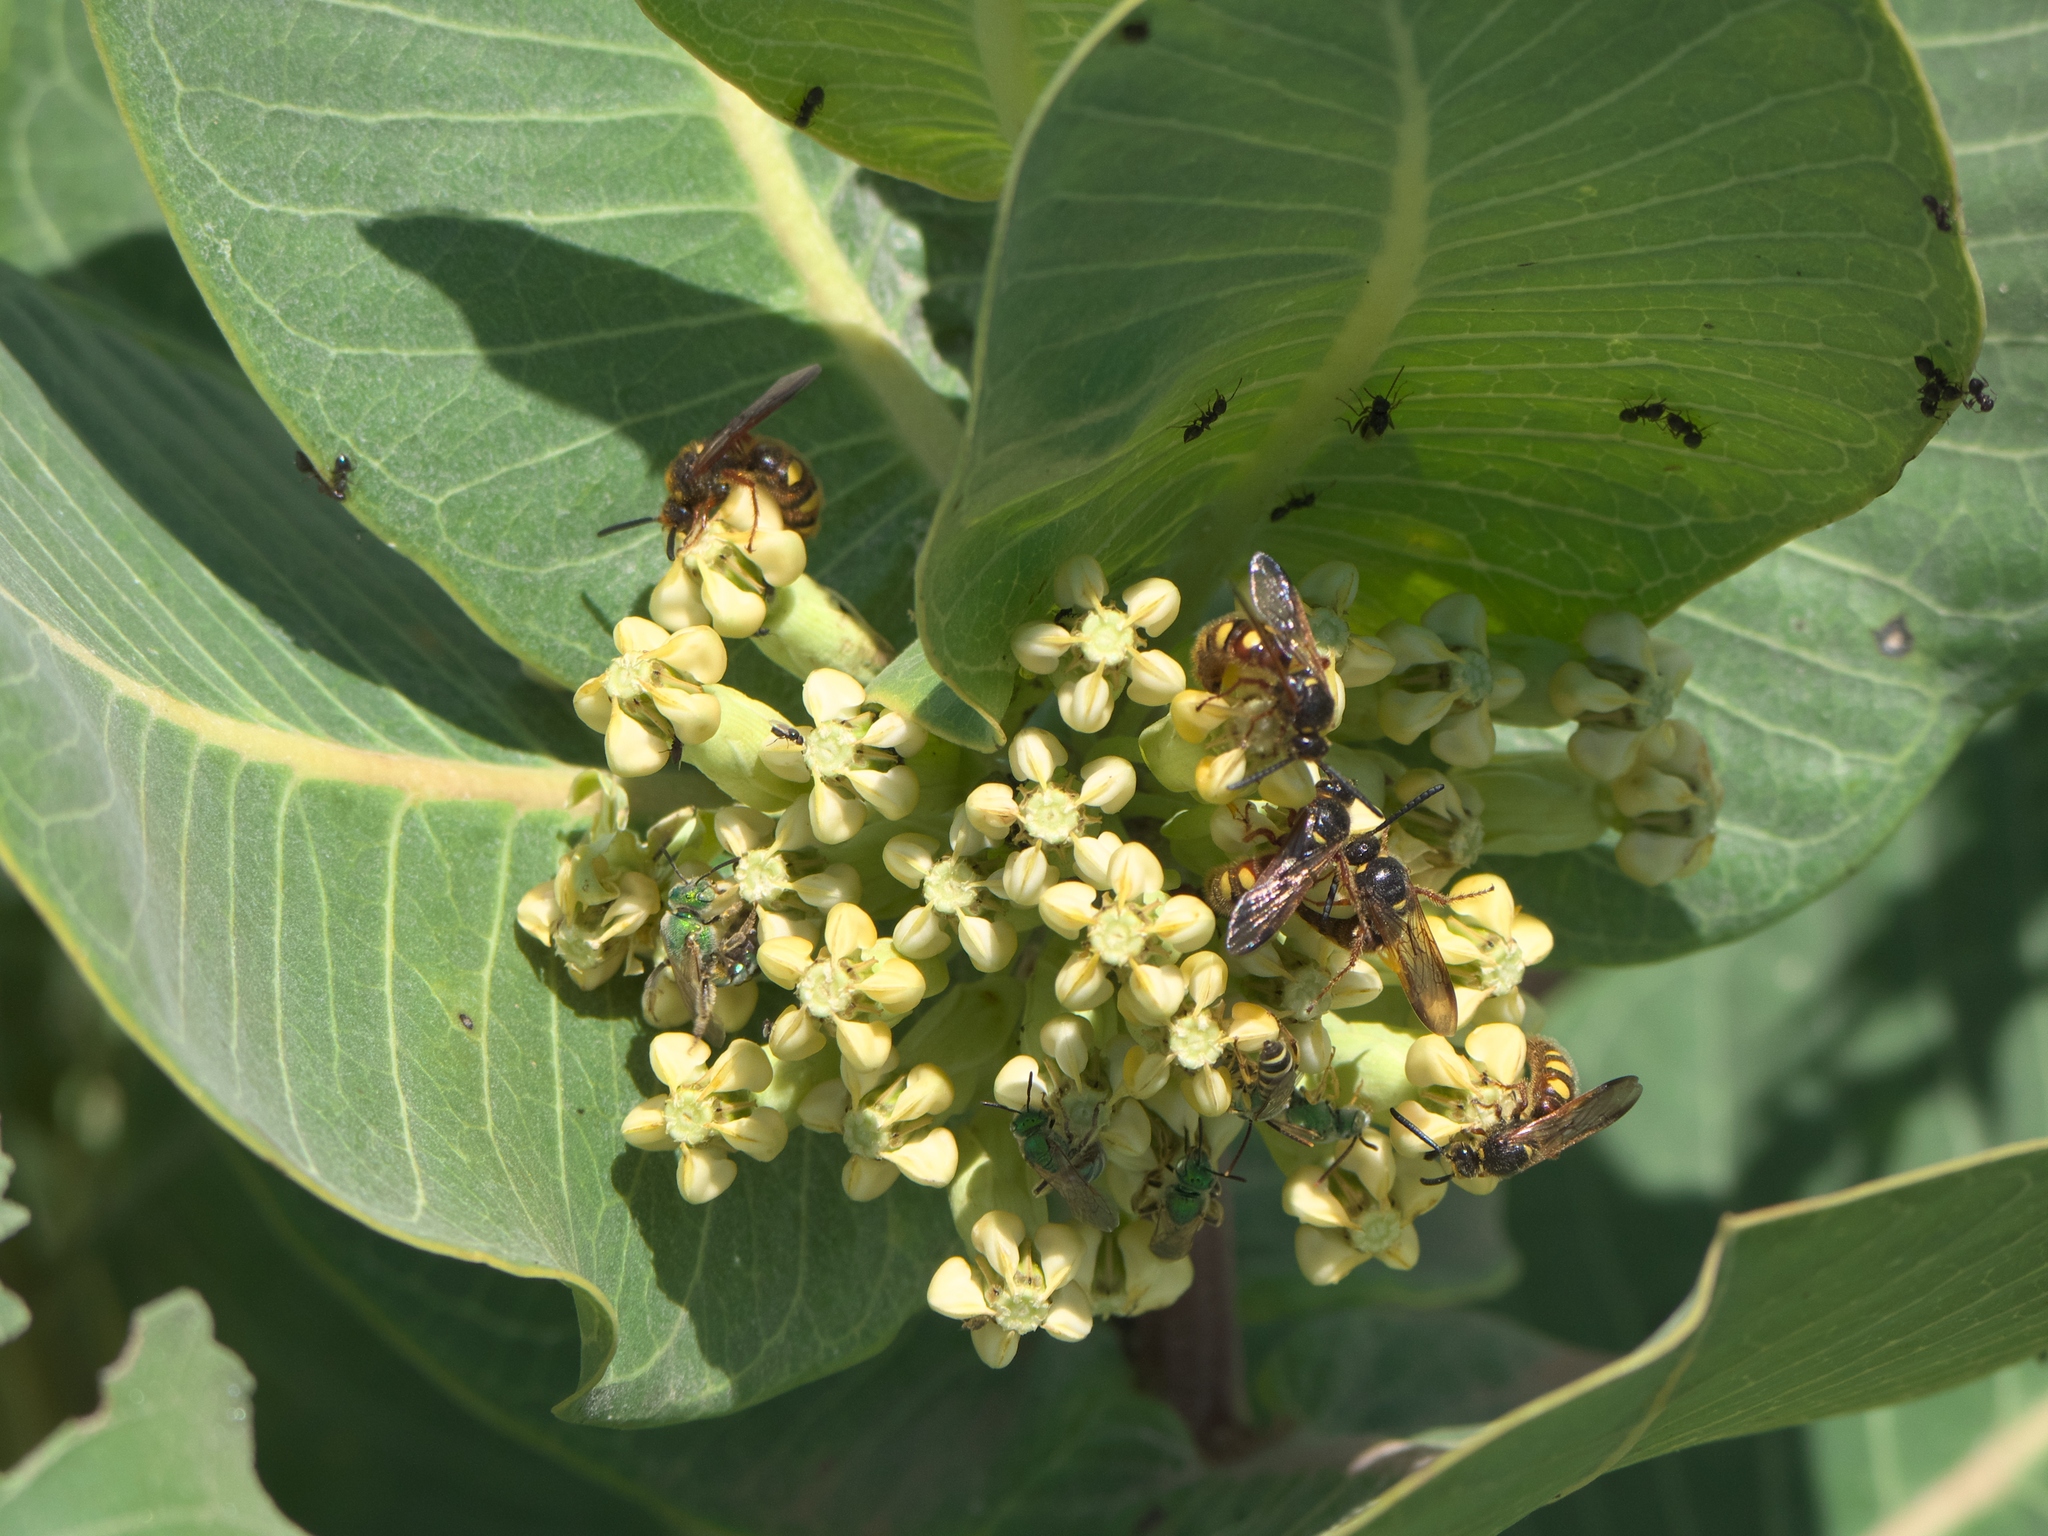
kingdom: Plantae
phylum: Tracheophyta
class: Magnoliopsida
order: Gentianales
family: Apocynaceae
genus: Asclepias
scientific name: Asclepias latifolia
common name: Broadleaf milkweed
